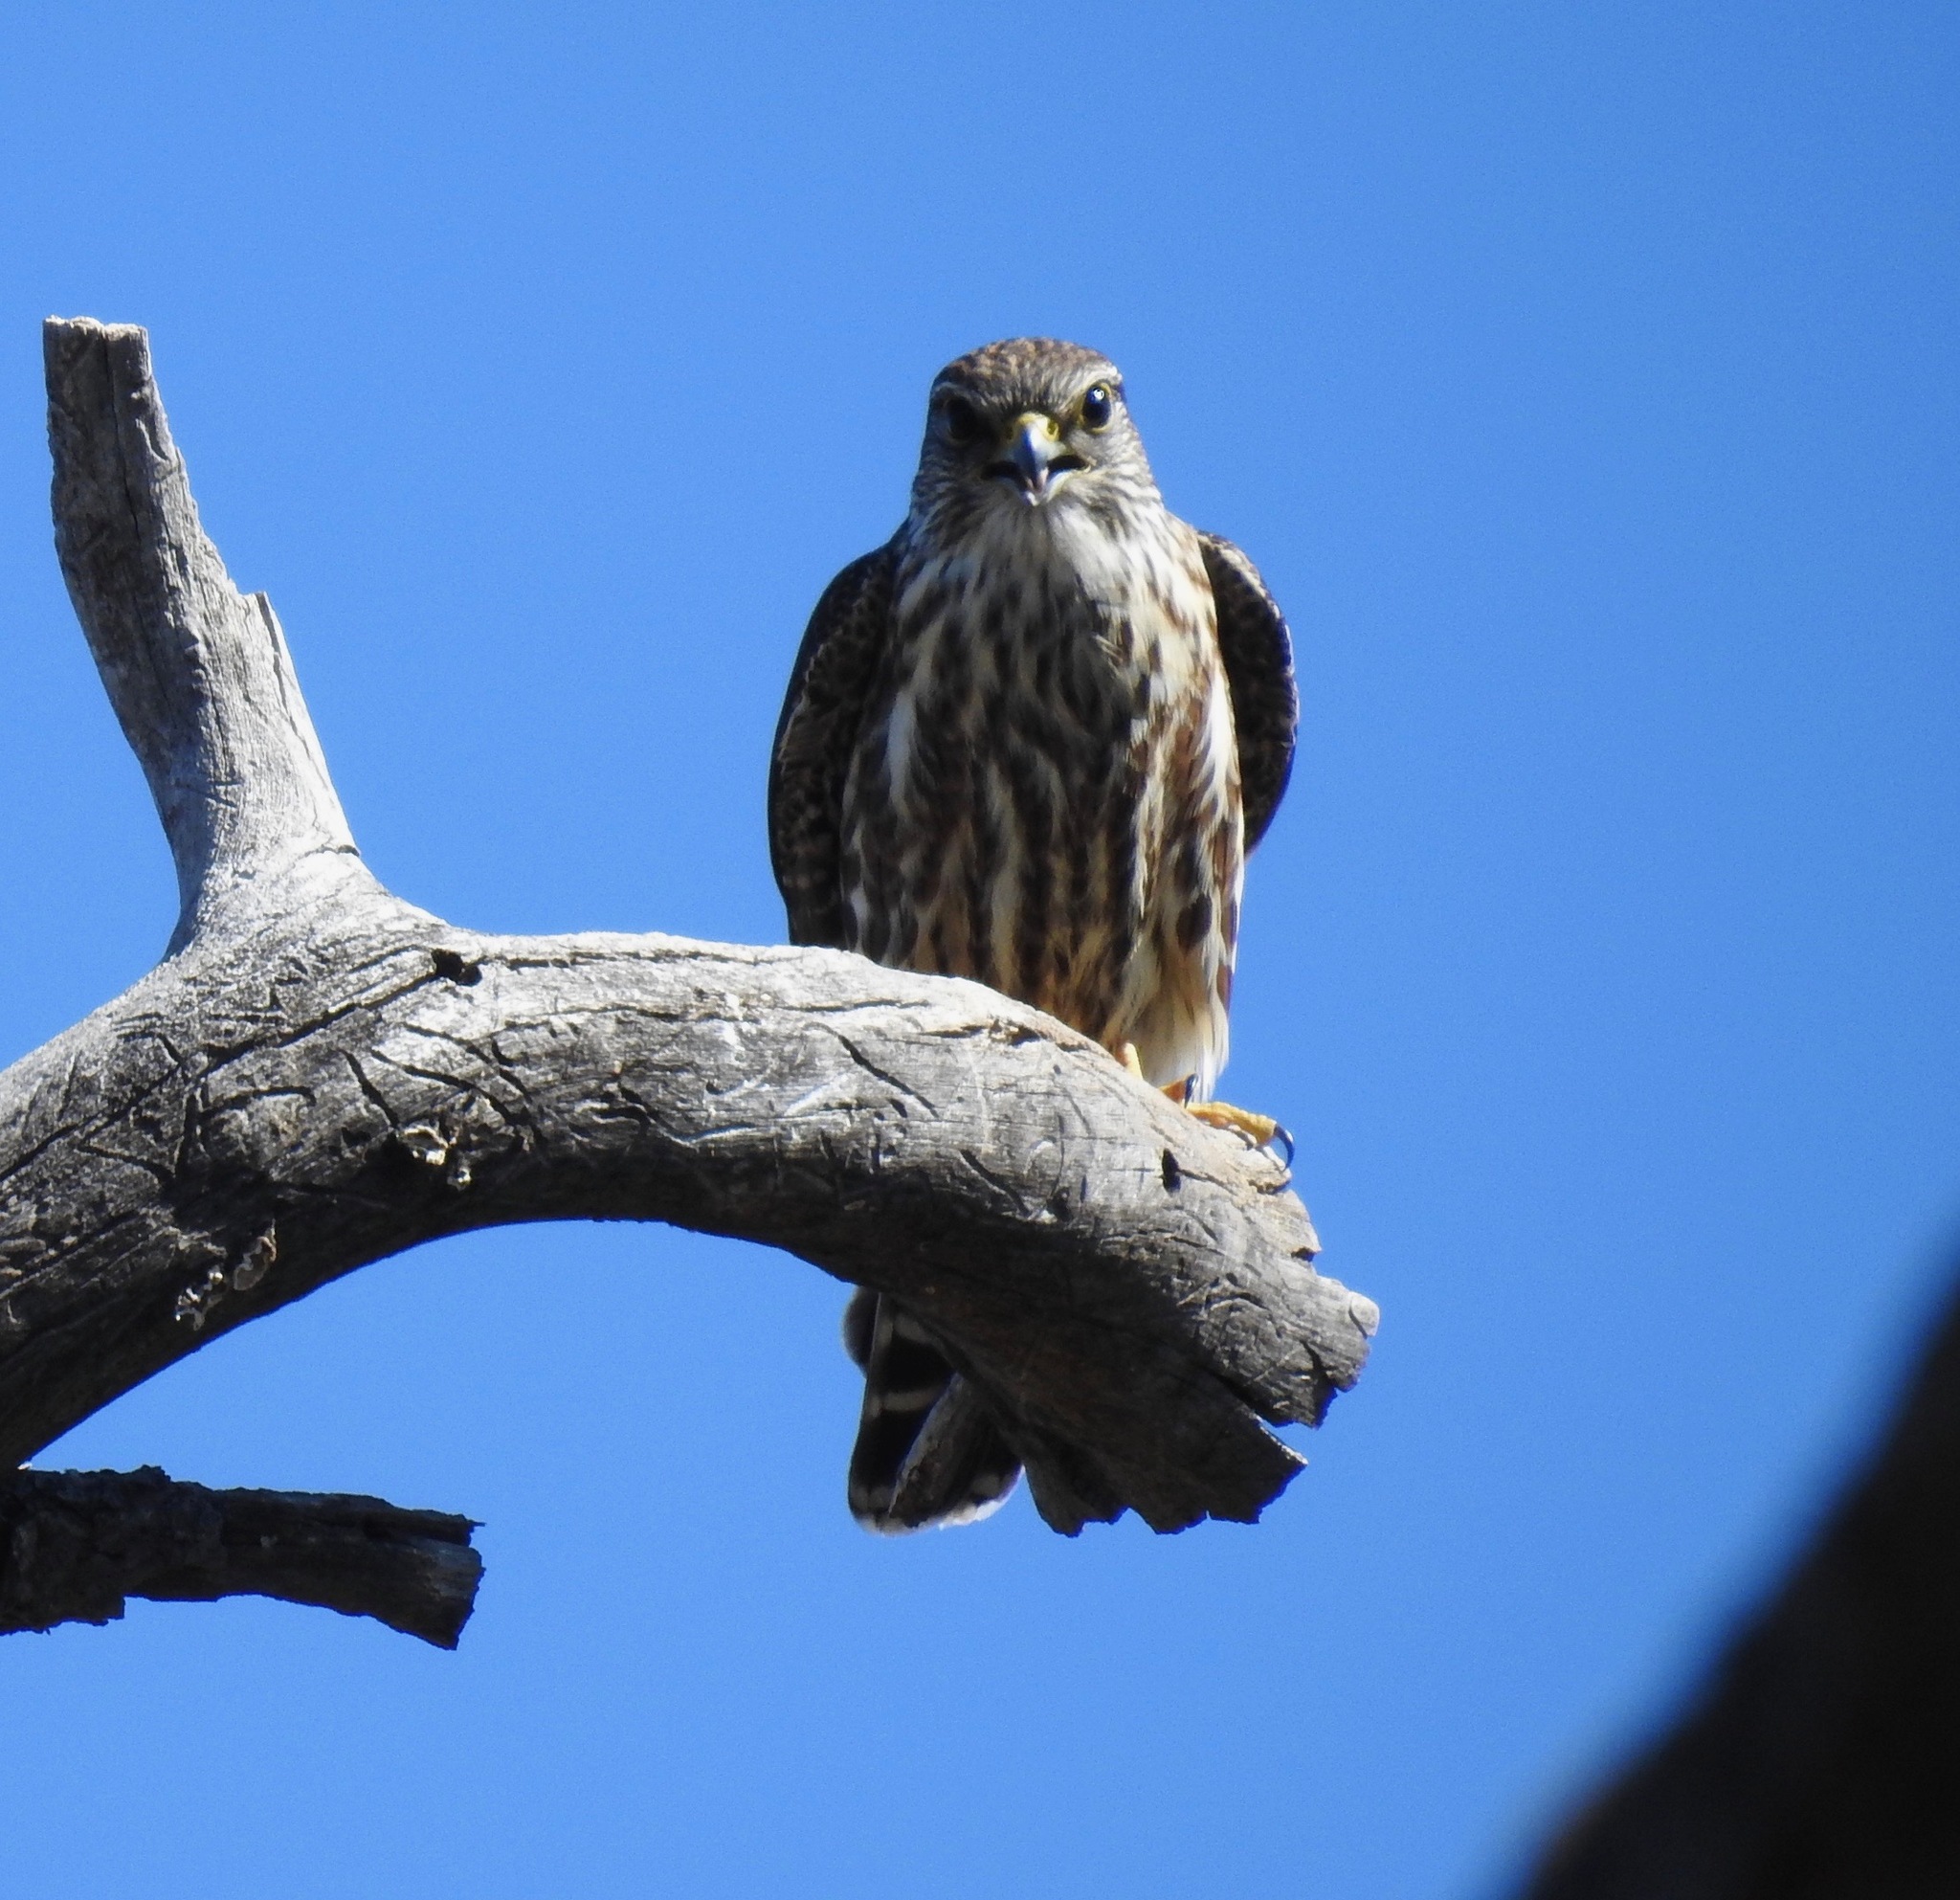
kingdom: Animalia
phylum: Chordata
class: Aves
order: Falconiformes
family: Falconidae
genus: Falco
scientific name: Falco columbarius
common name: Merlin
